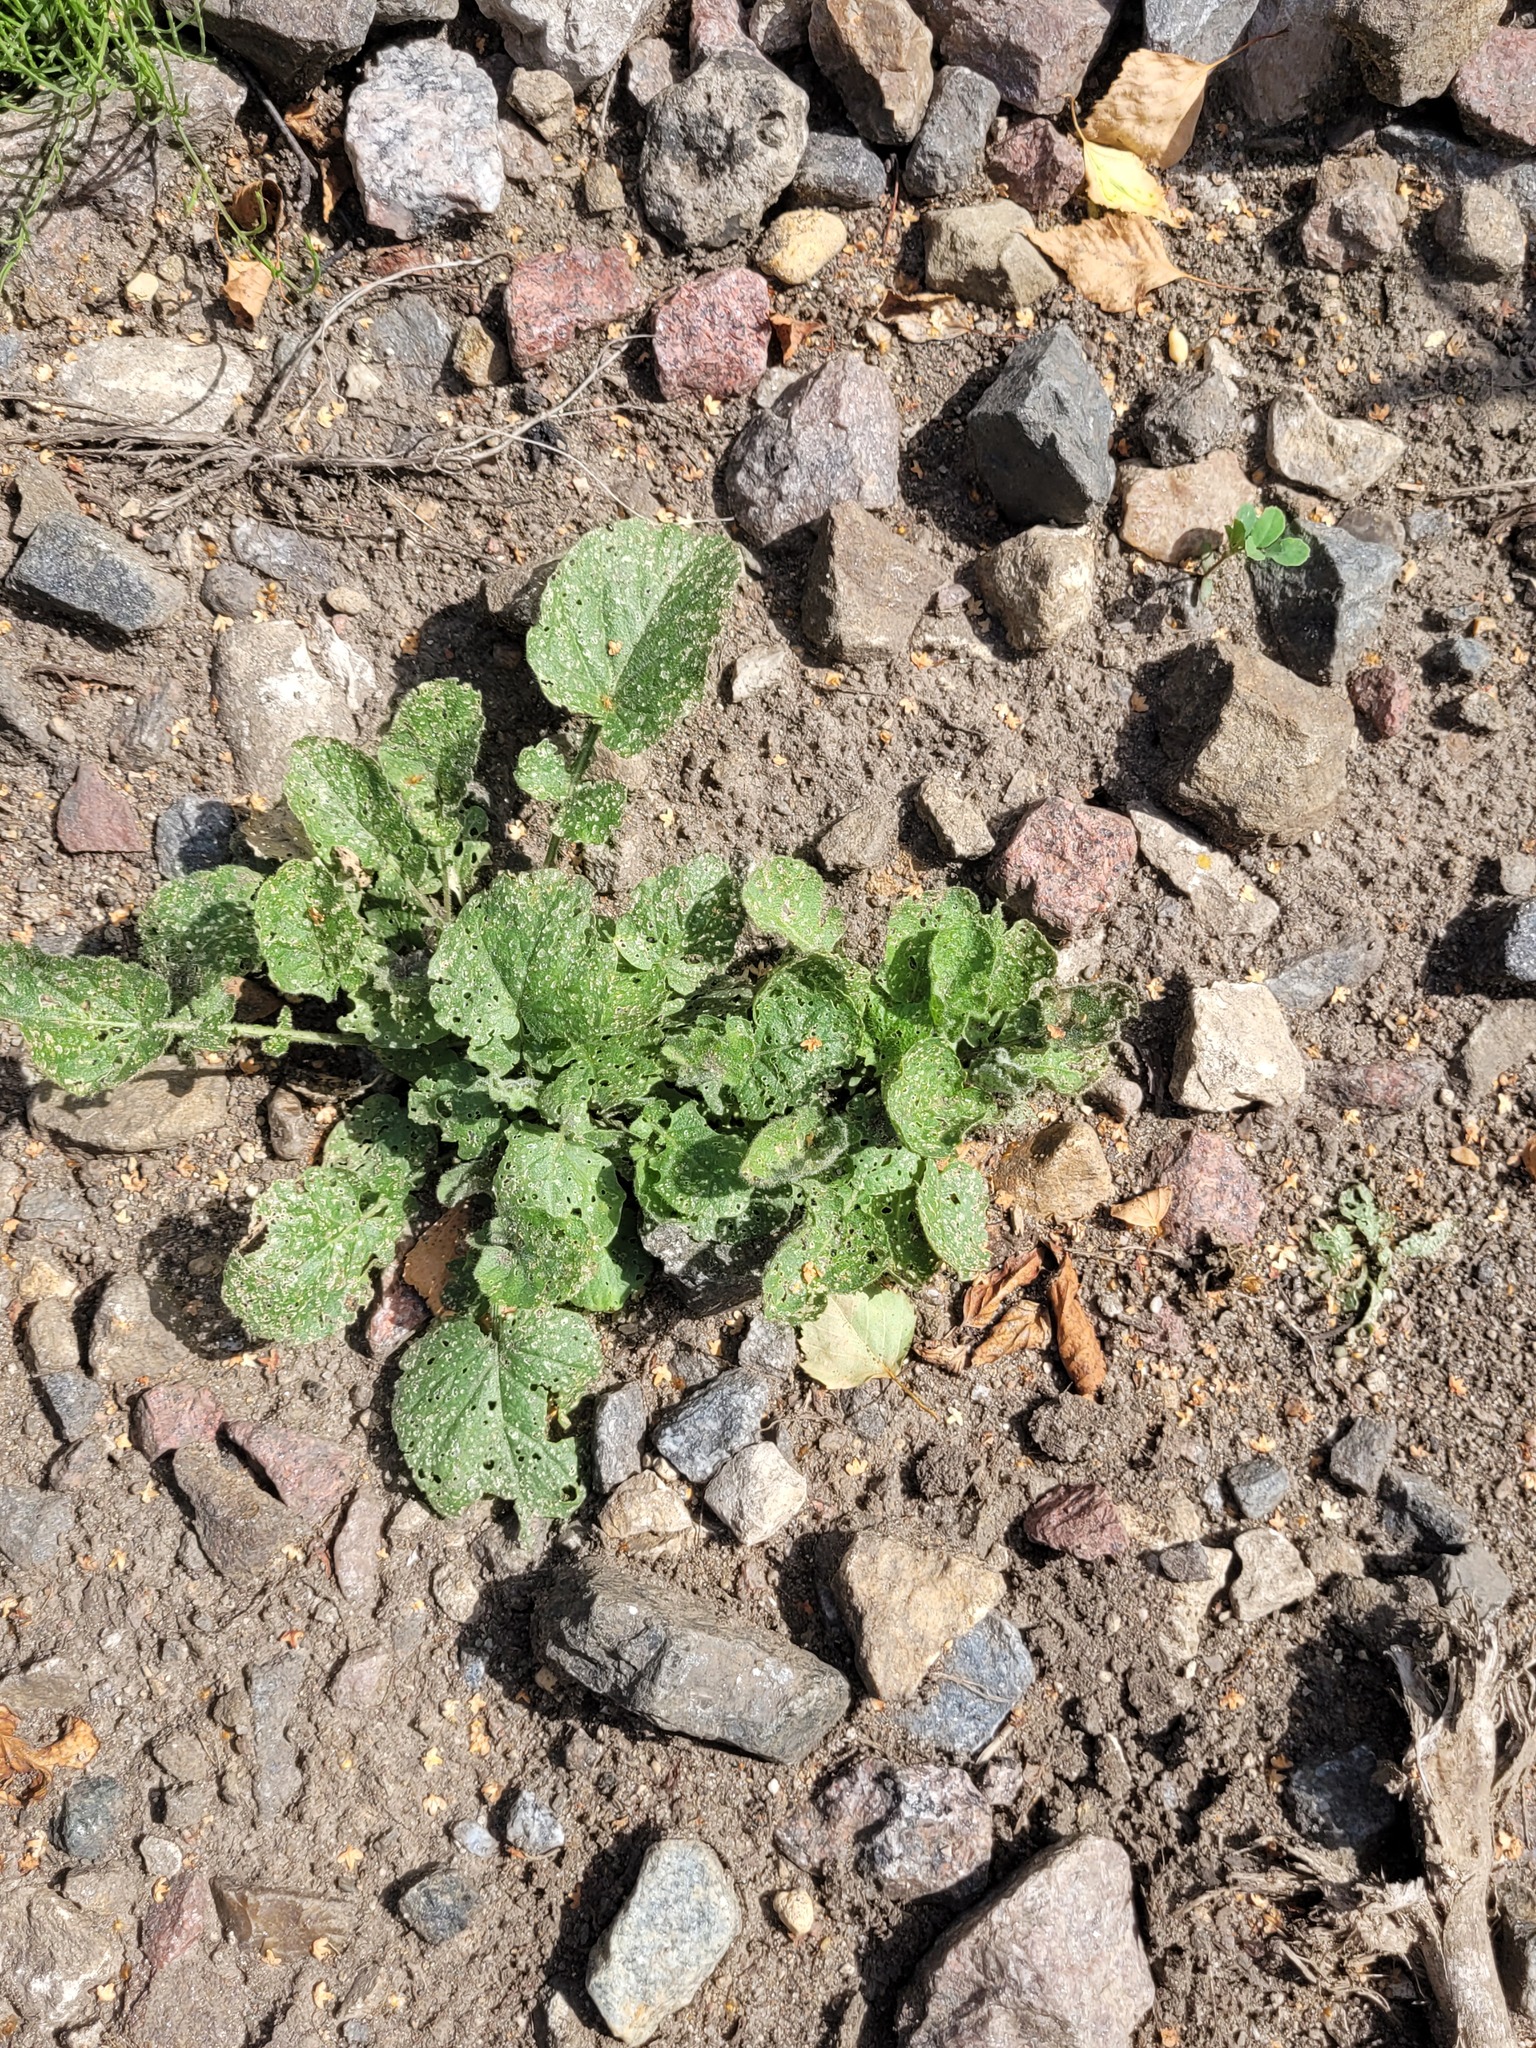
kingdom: Plantae
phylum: Tracheophyta
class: Magnoliopsida
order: Brassicales
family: Brassicaceae
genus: Barbarea
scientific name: Barbarea vulgaris
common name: Cressy-greens
